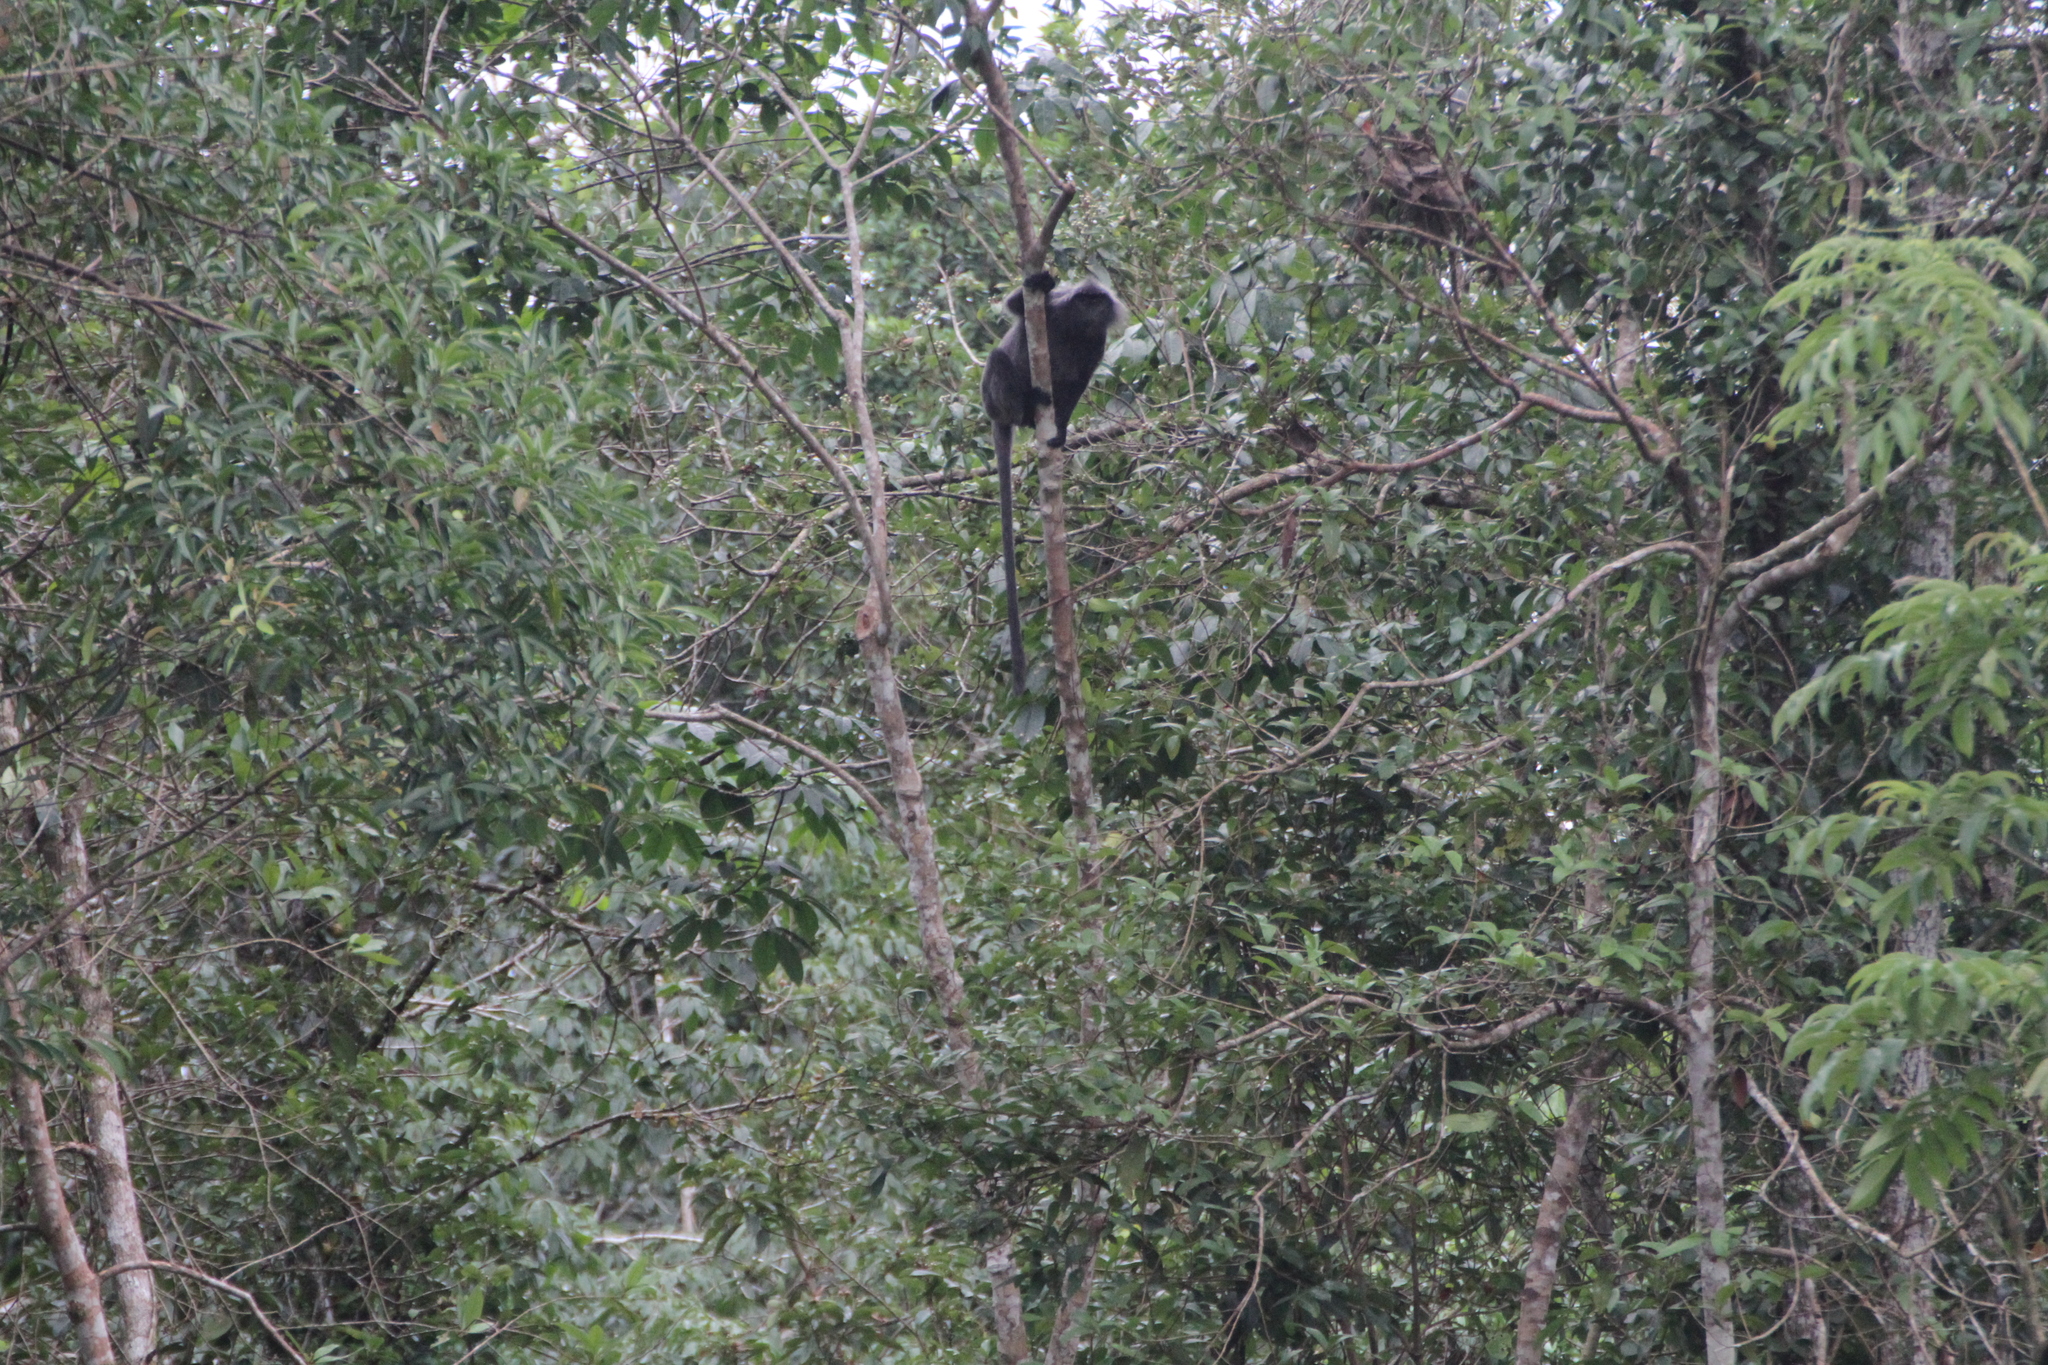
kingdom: Animalia
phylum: Chordata
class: Mammalia
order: Primates
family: Cercopithecidae
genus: Trachypithecus
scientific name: Trachypithecus cristatus
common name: Silvery lutung
